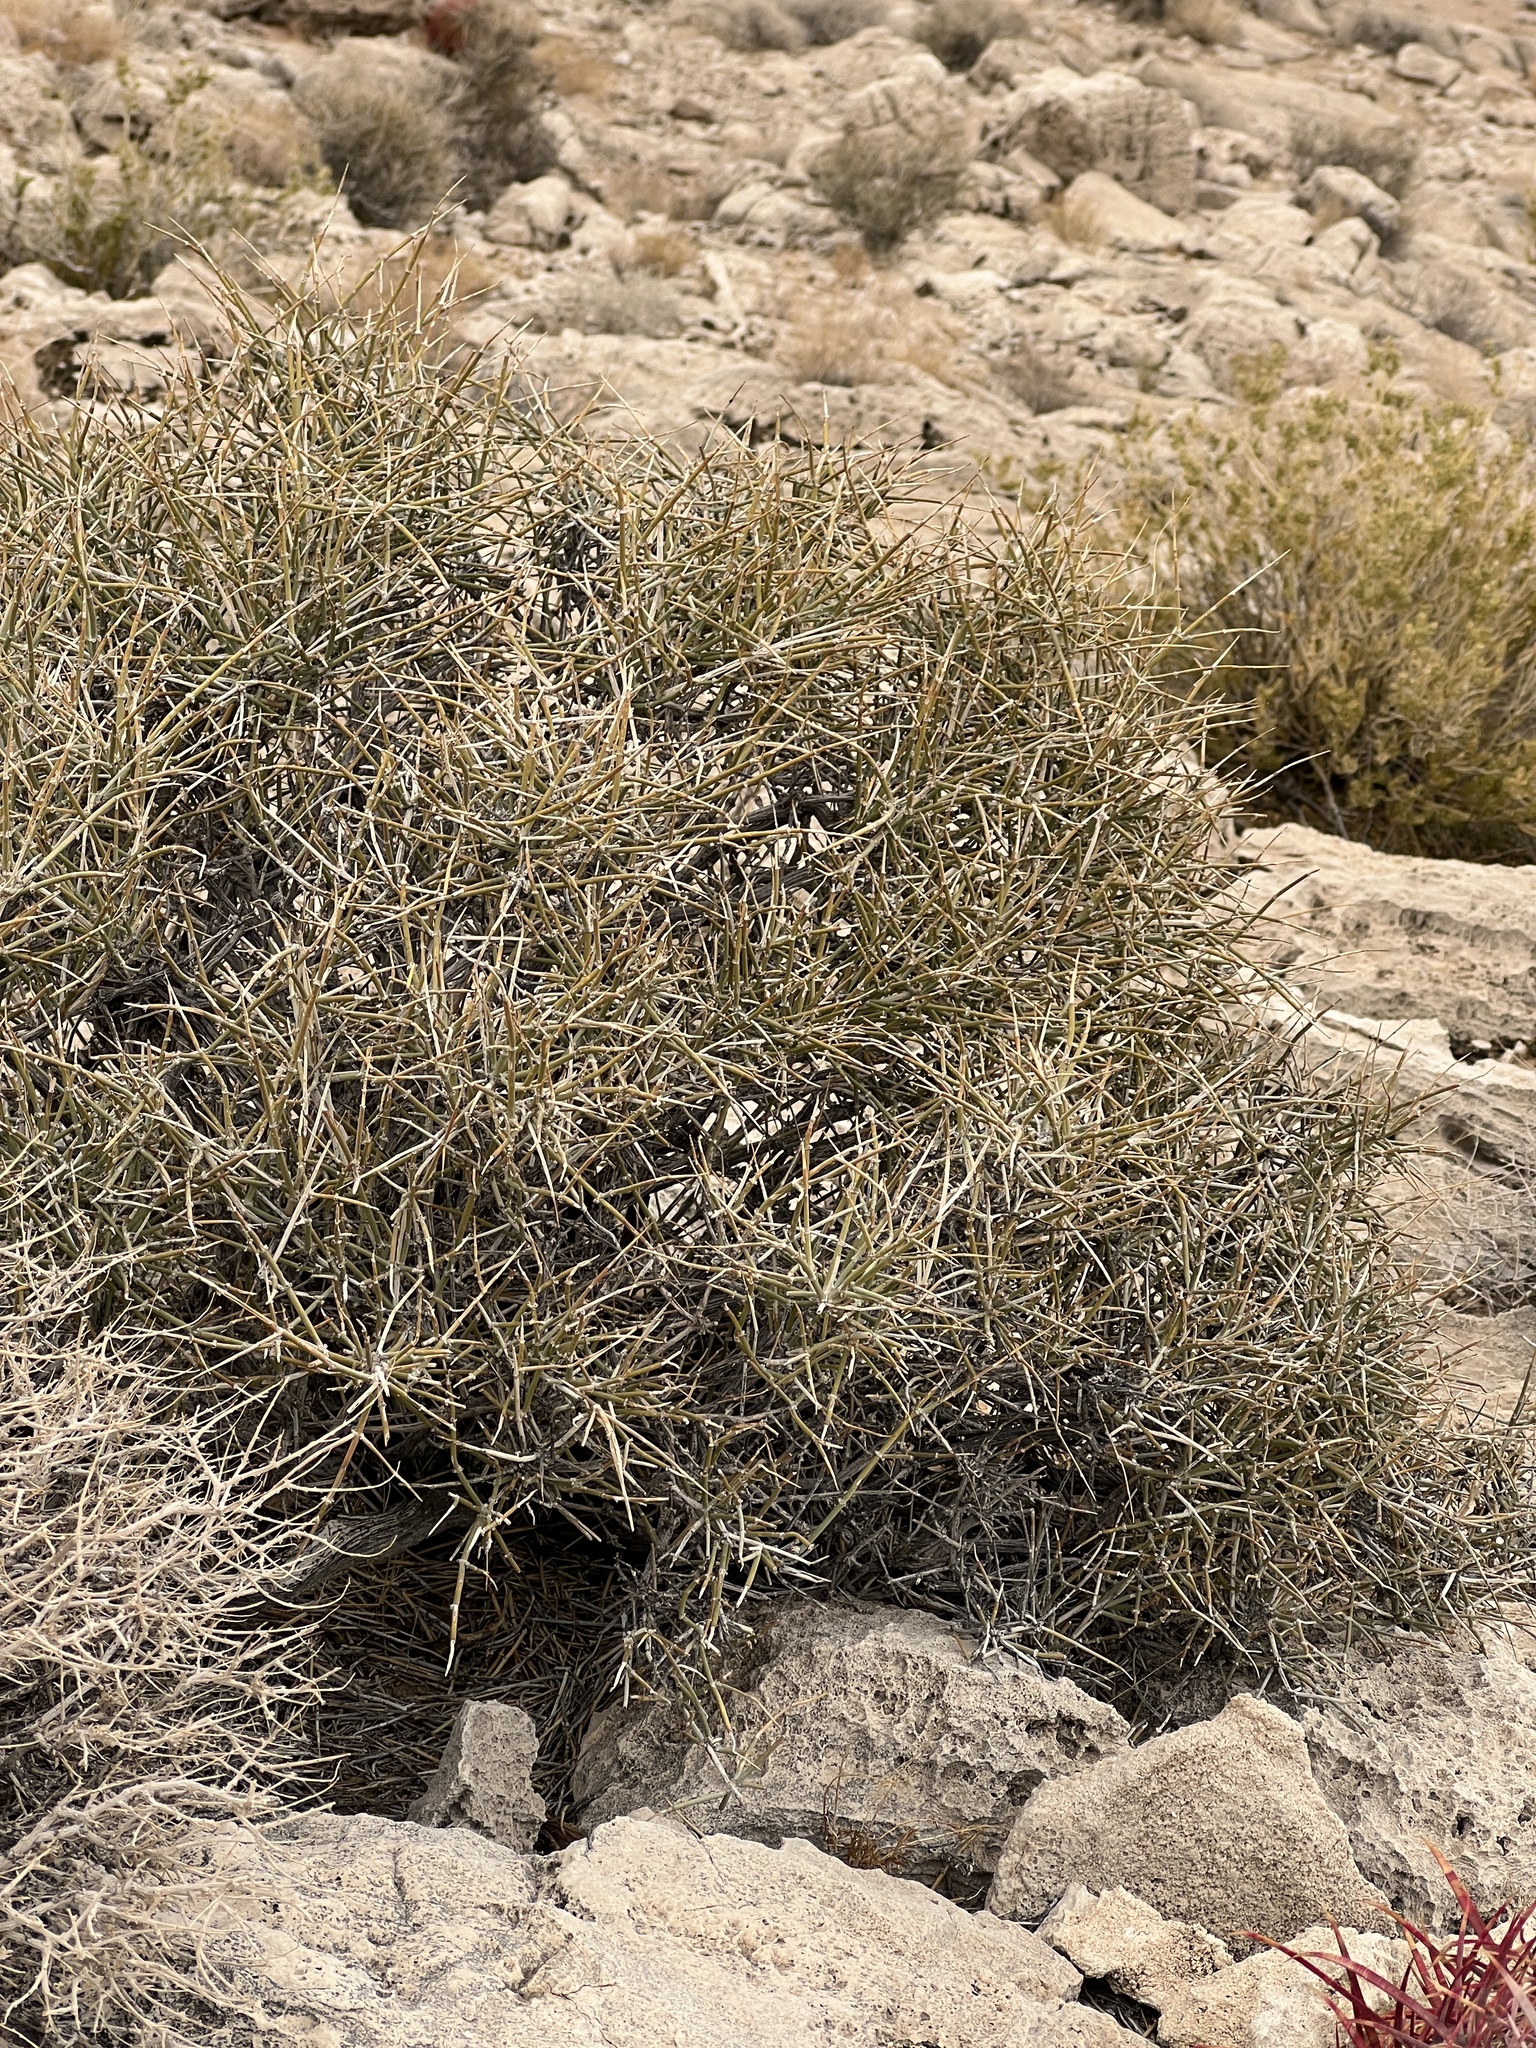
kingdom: Plantae
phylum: Tracheophyta
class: Gnetopsida
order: Ephedrales
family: Ephedraceae
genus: Ephedra
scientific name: Ephedra nevadensis
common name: Gray ephedra
